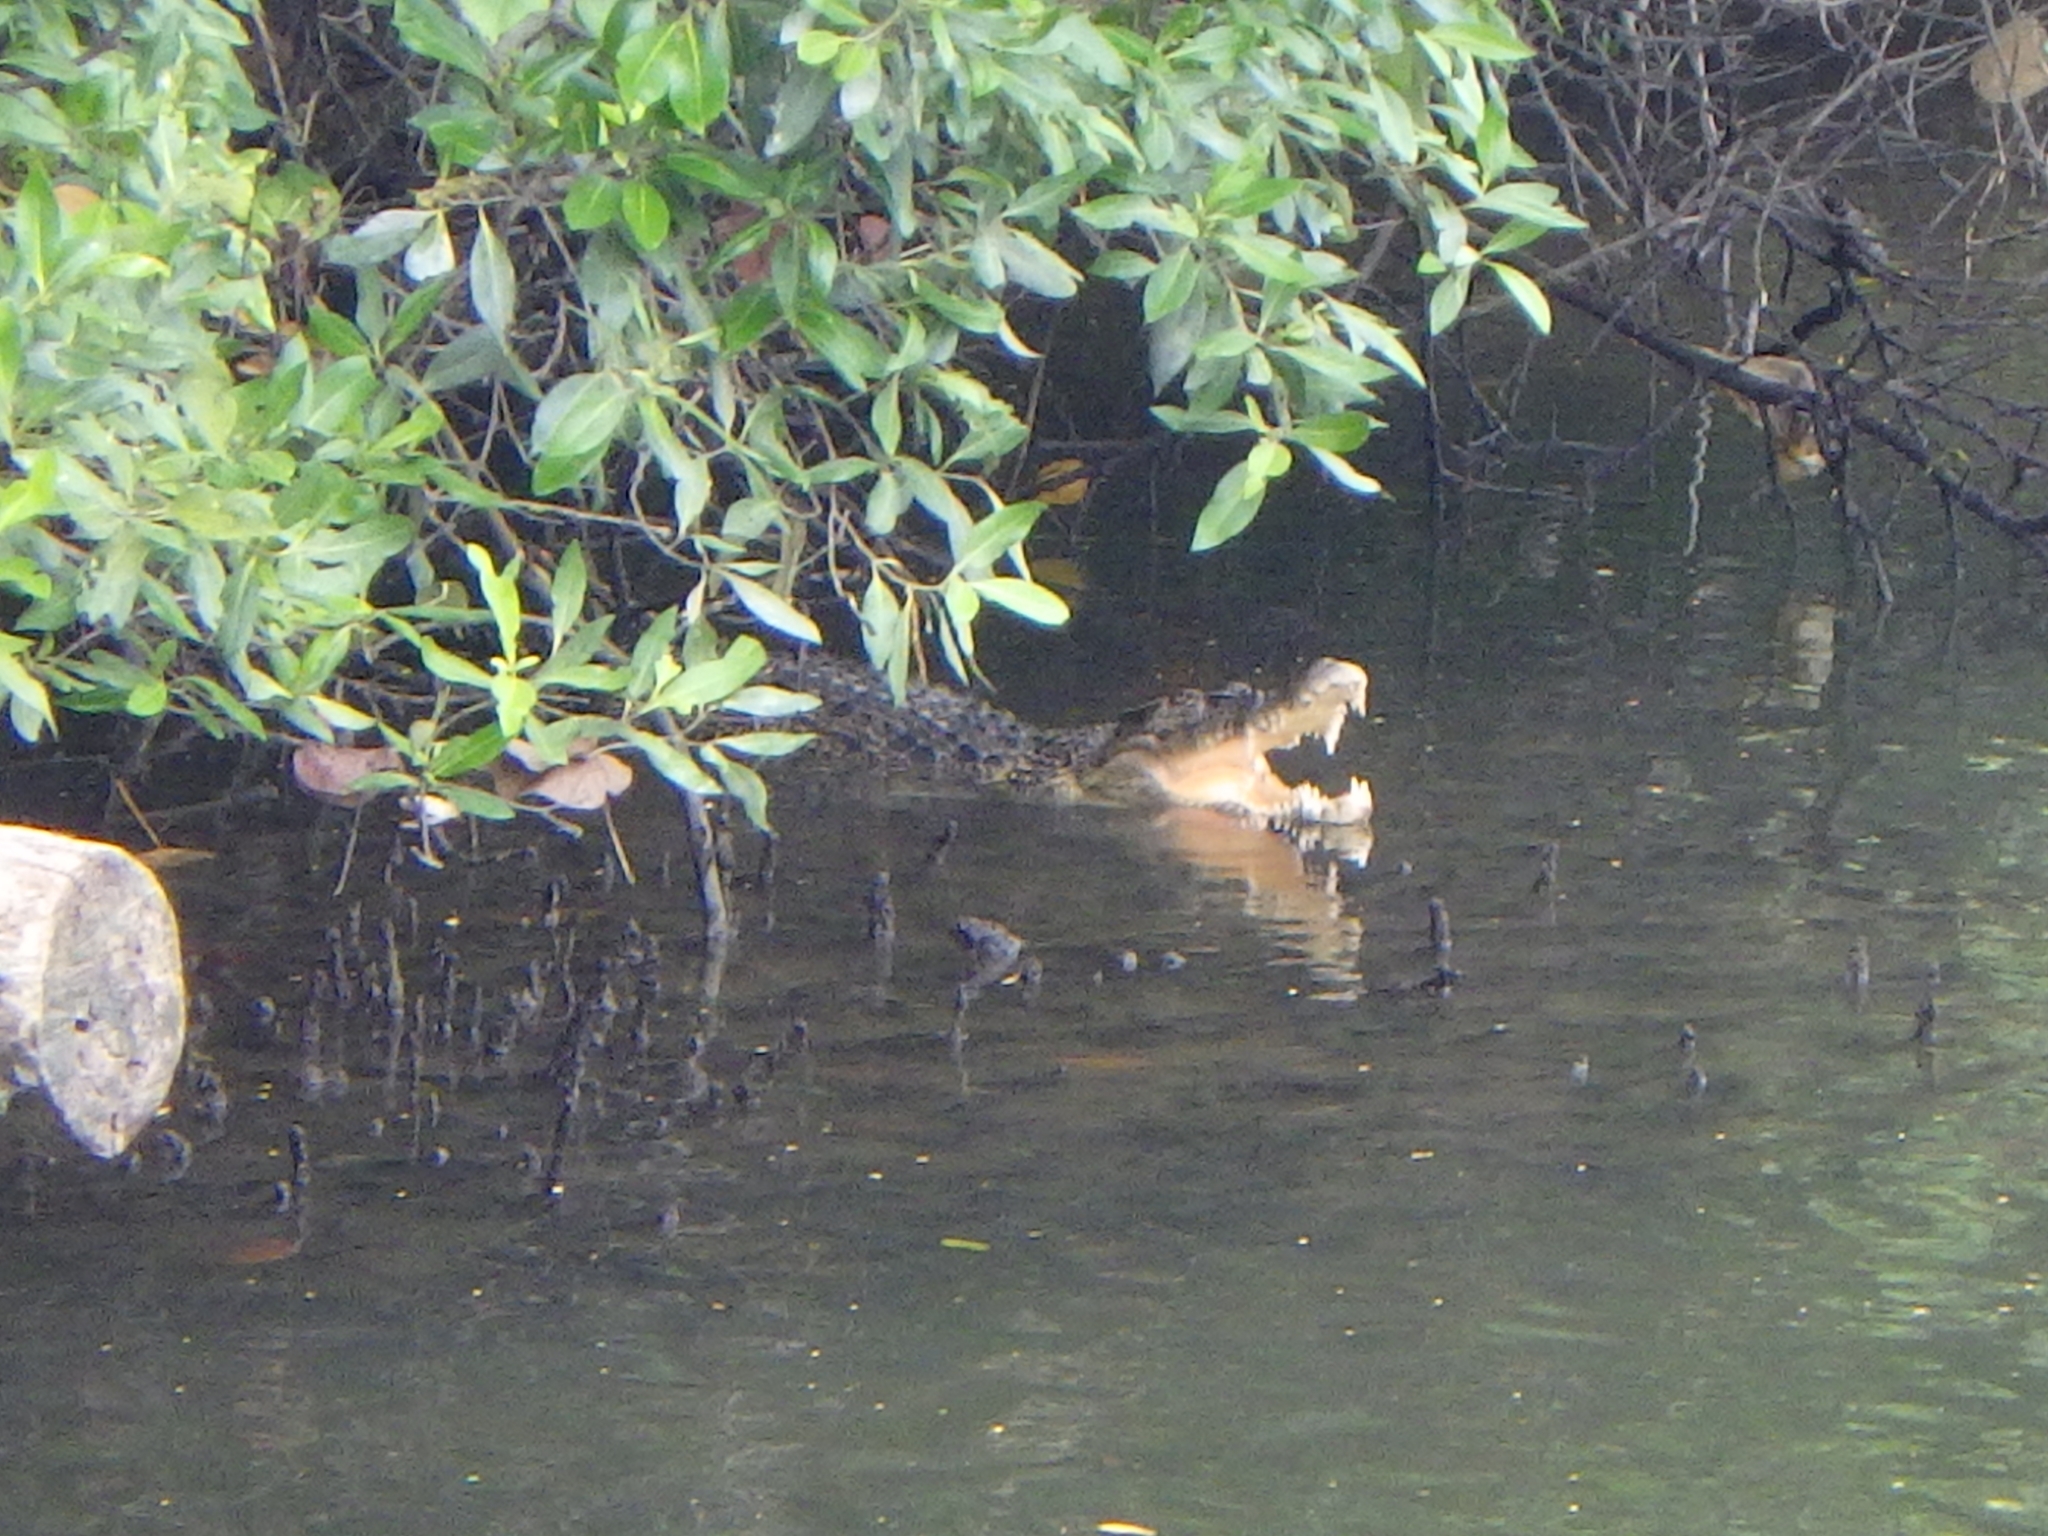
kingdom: Animalia
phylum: Chordata
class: Crocodylia
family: Crocodylidae
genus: Crocodylus
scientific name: Crocodylus porosus
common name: Saltwater crocodile
